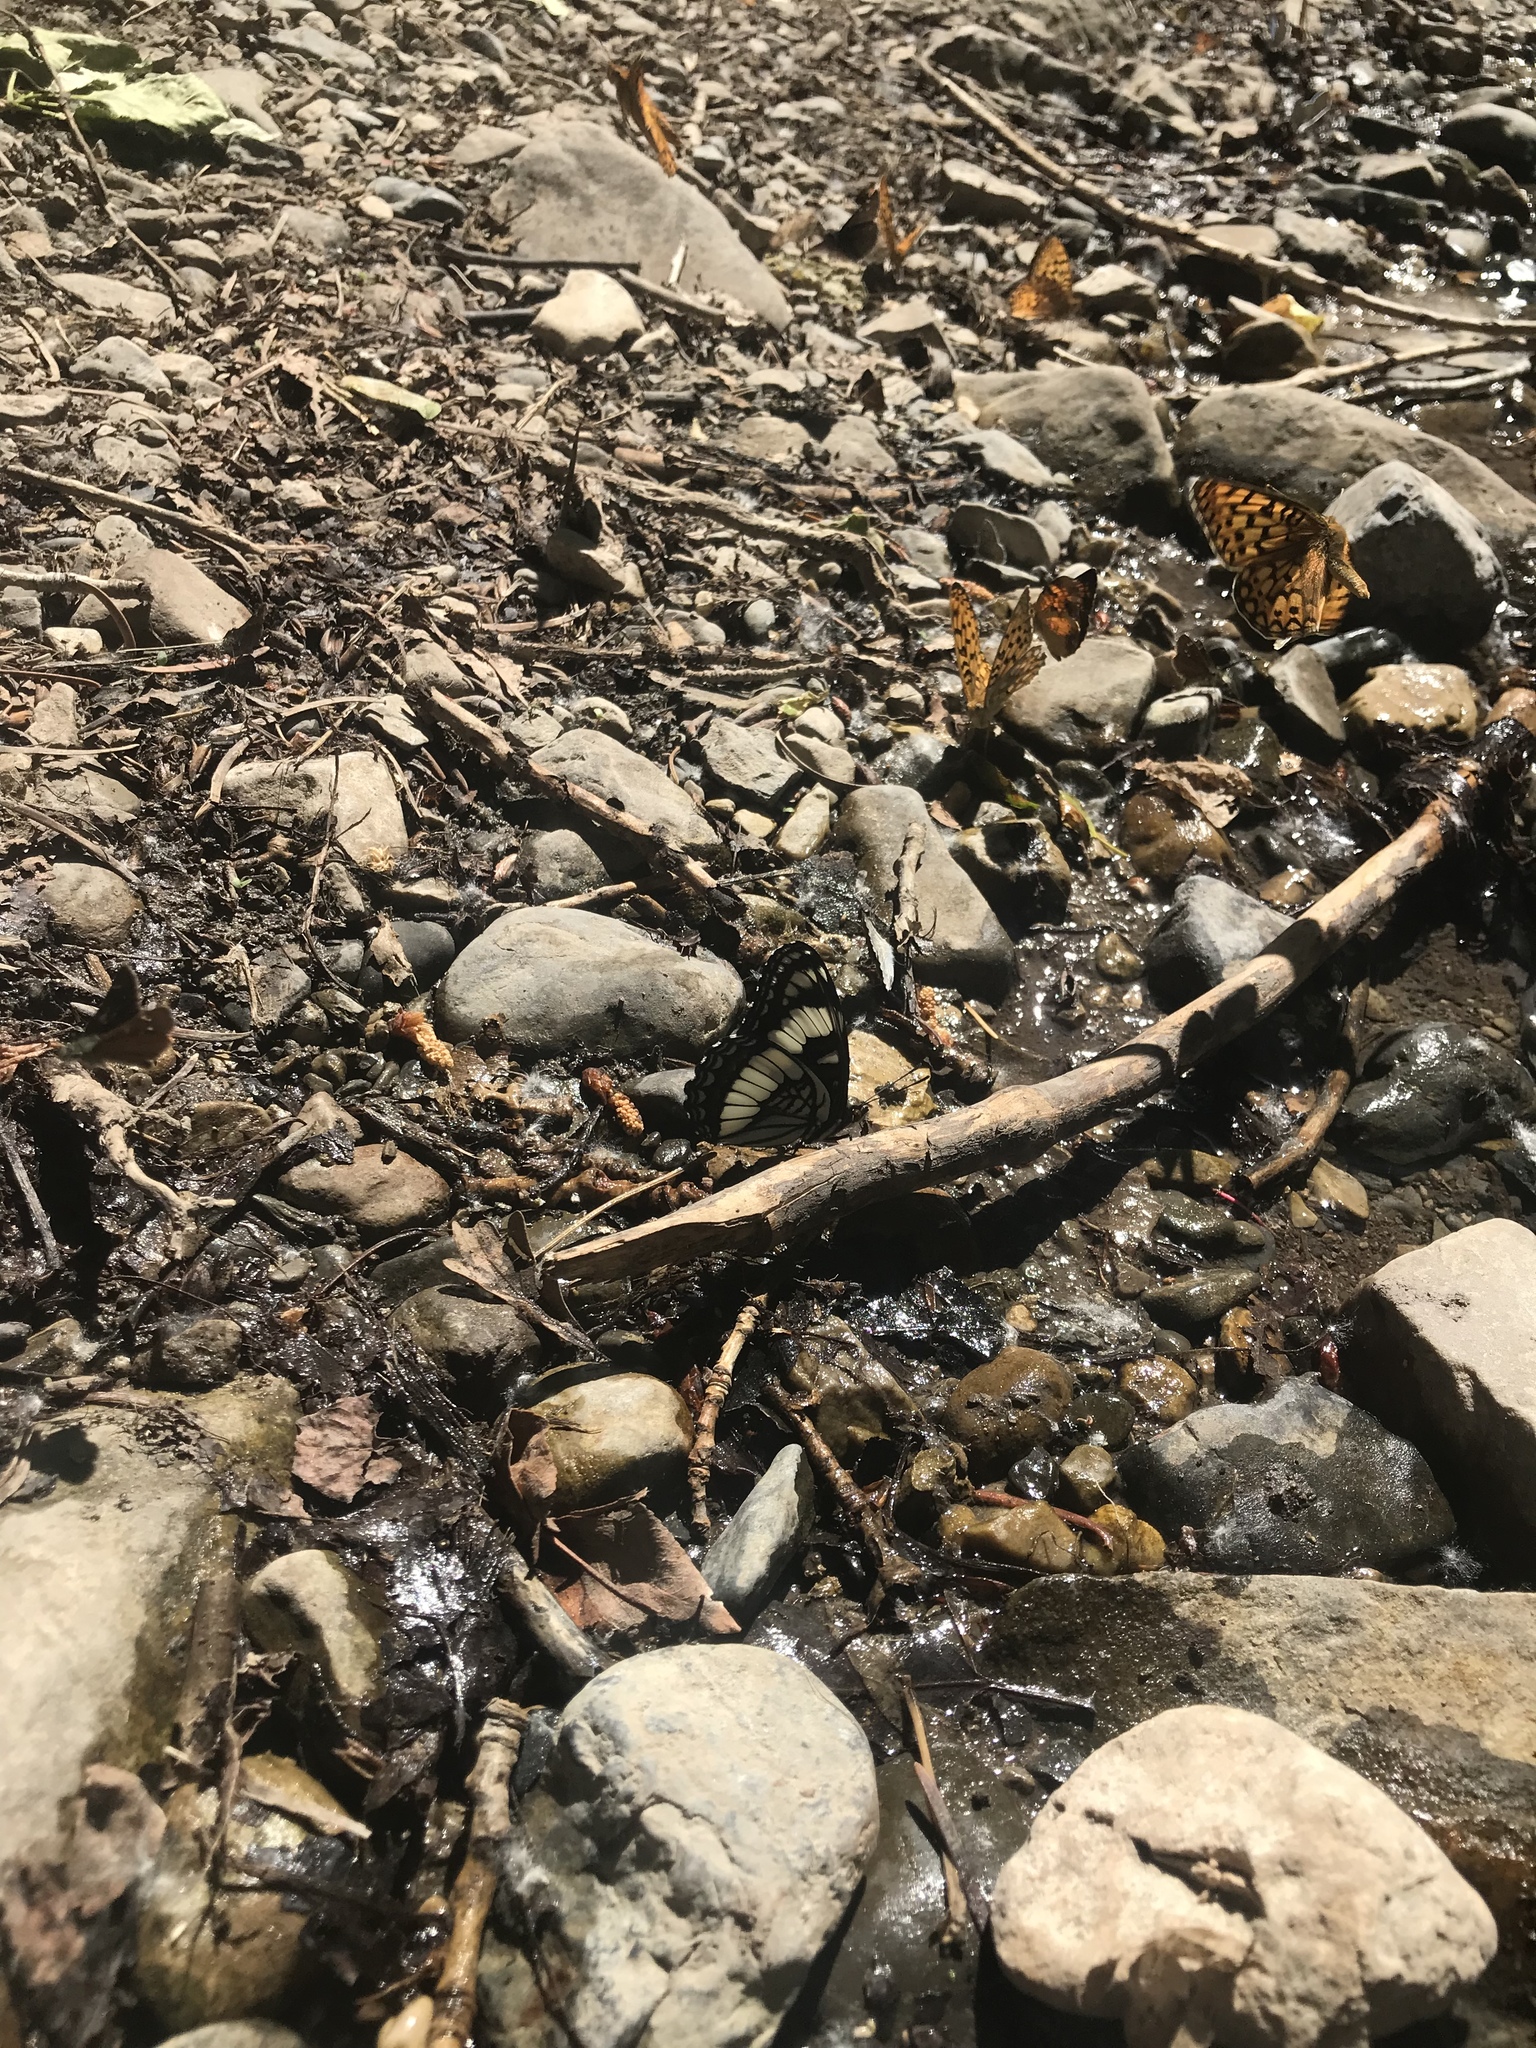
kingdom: Animalia
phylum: Arthropoda
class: Insecta
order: Lepidoptera
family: Nymphalidae
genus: Speyeria
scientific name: Speyeria egleis
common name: Great basin fritillary
